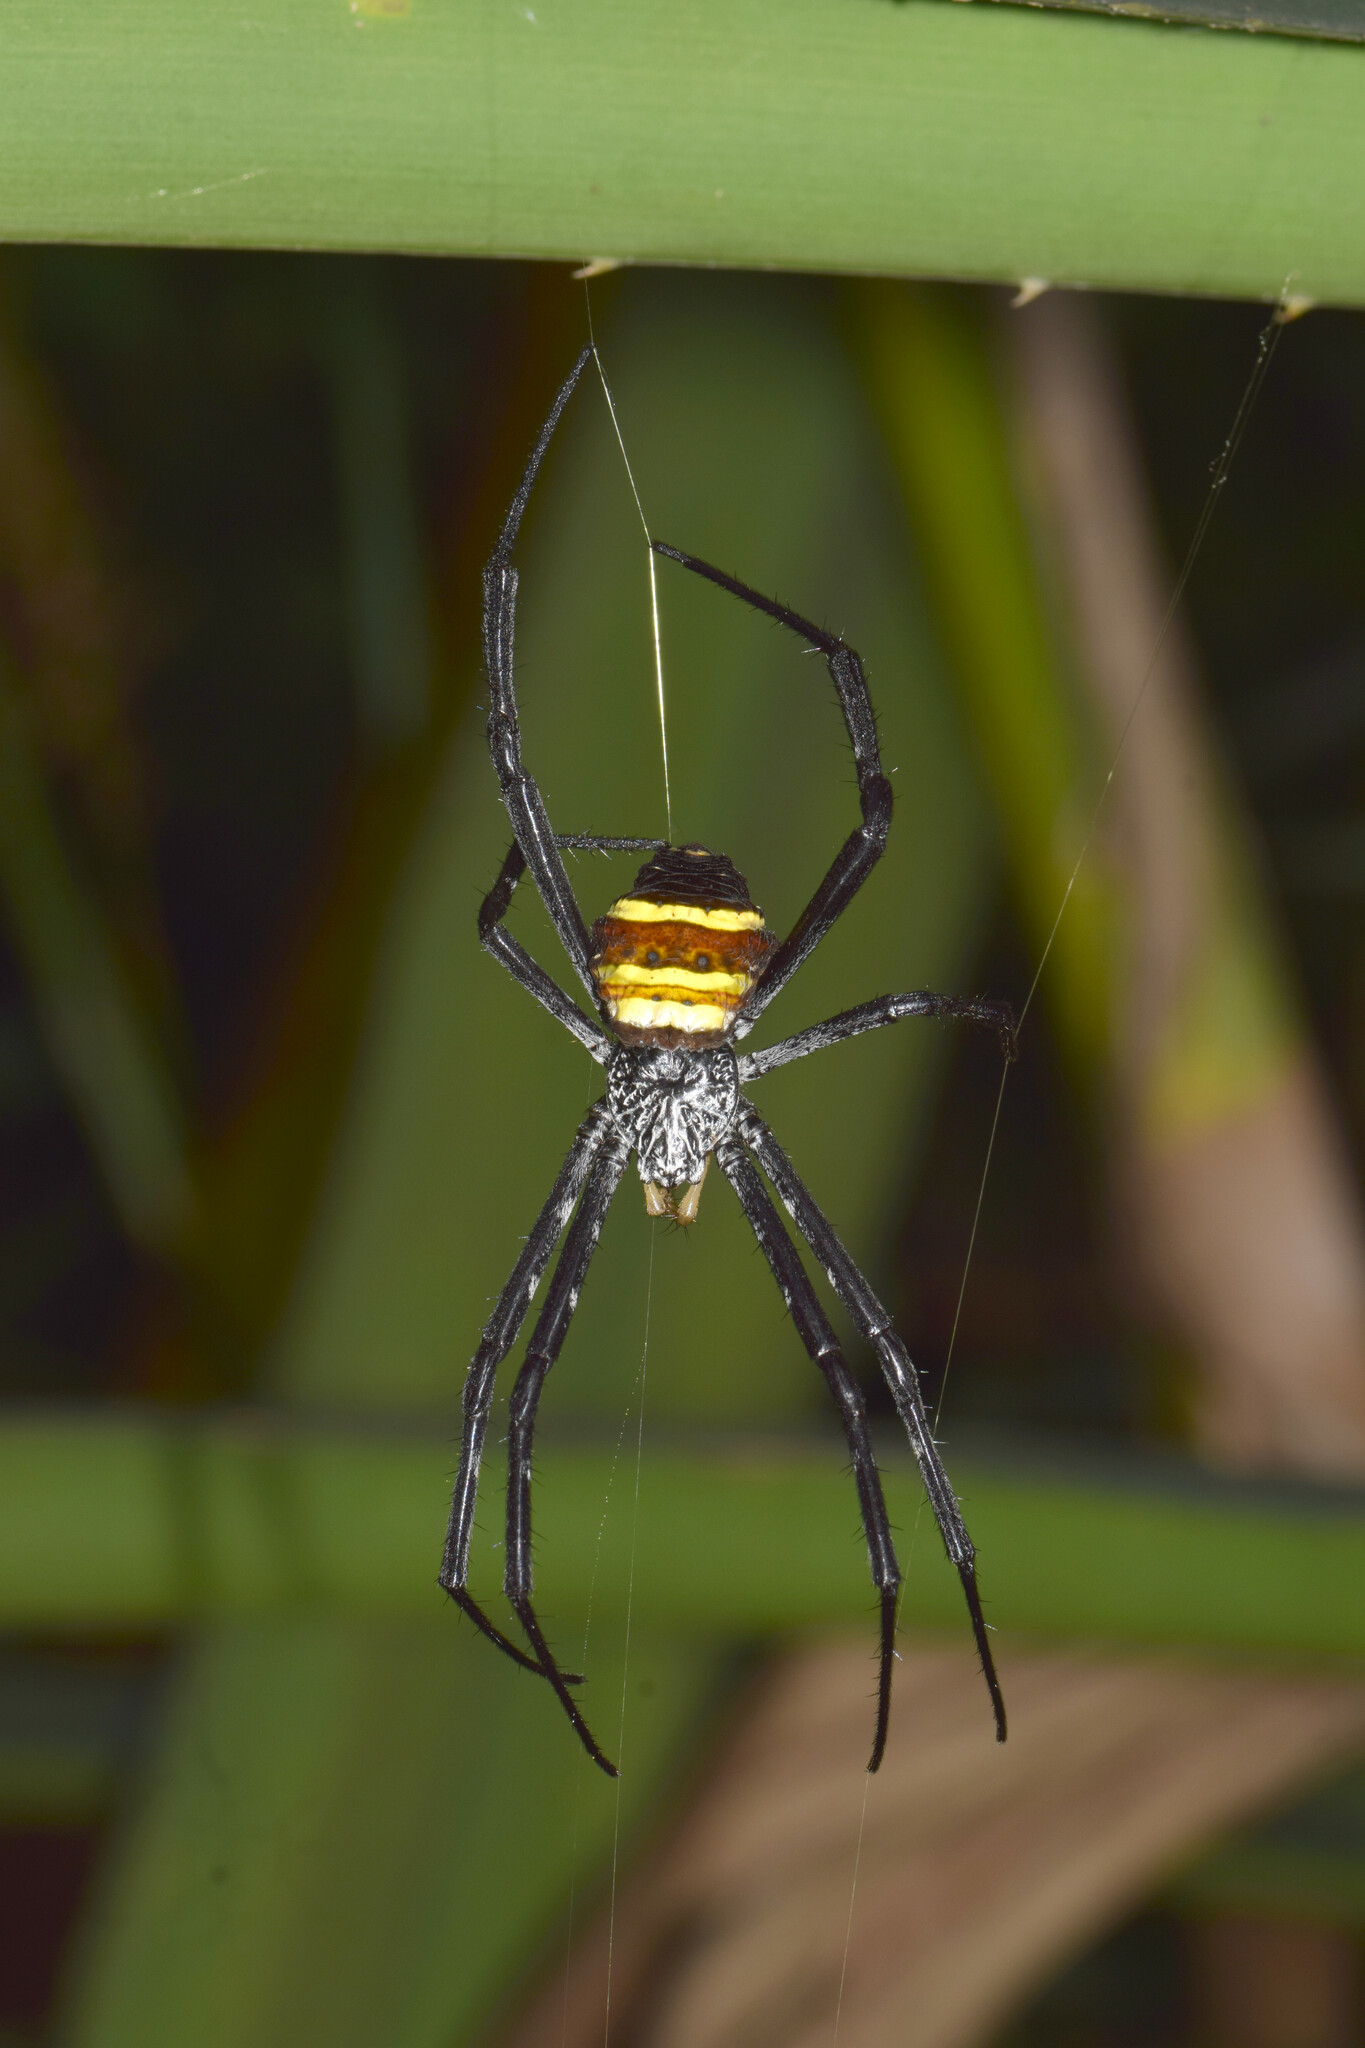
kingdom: Animalia
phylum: Arthropoda
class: Arachnida
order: Araneae
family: Araneidae
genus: Argiope
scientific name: Argiope caesarea
